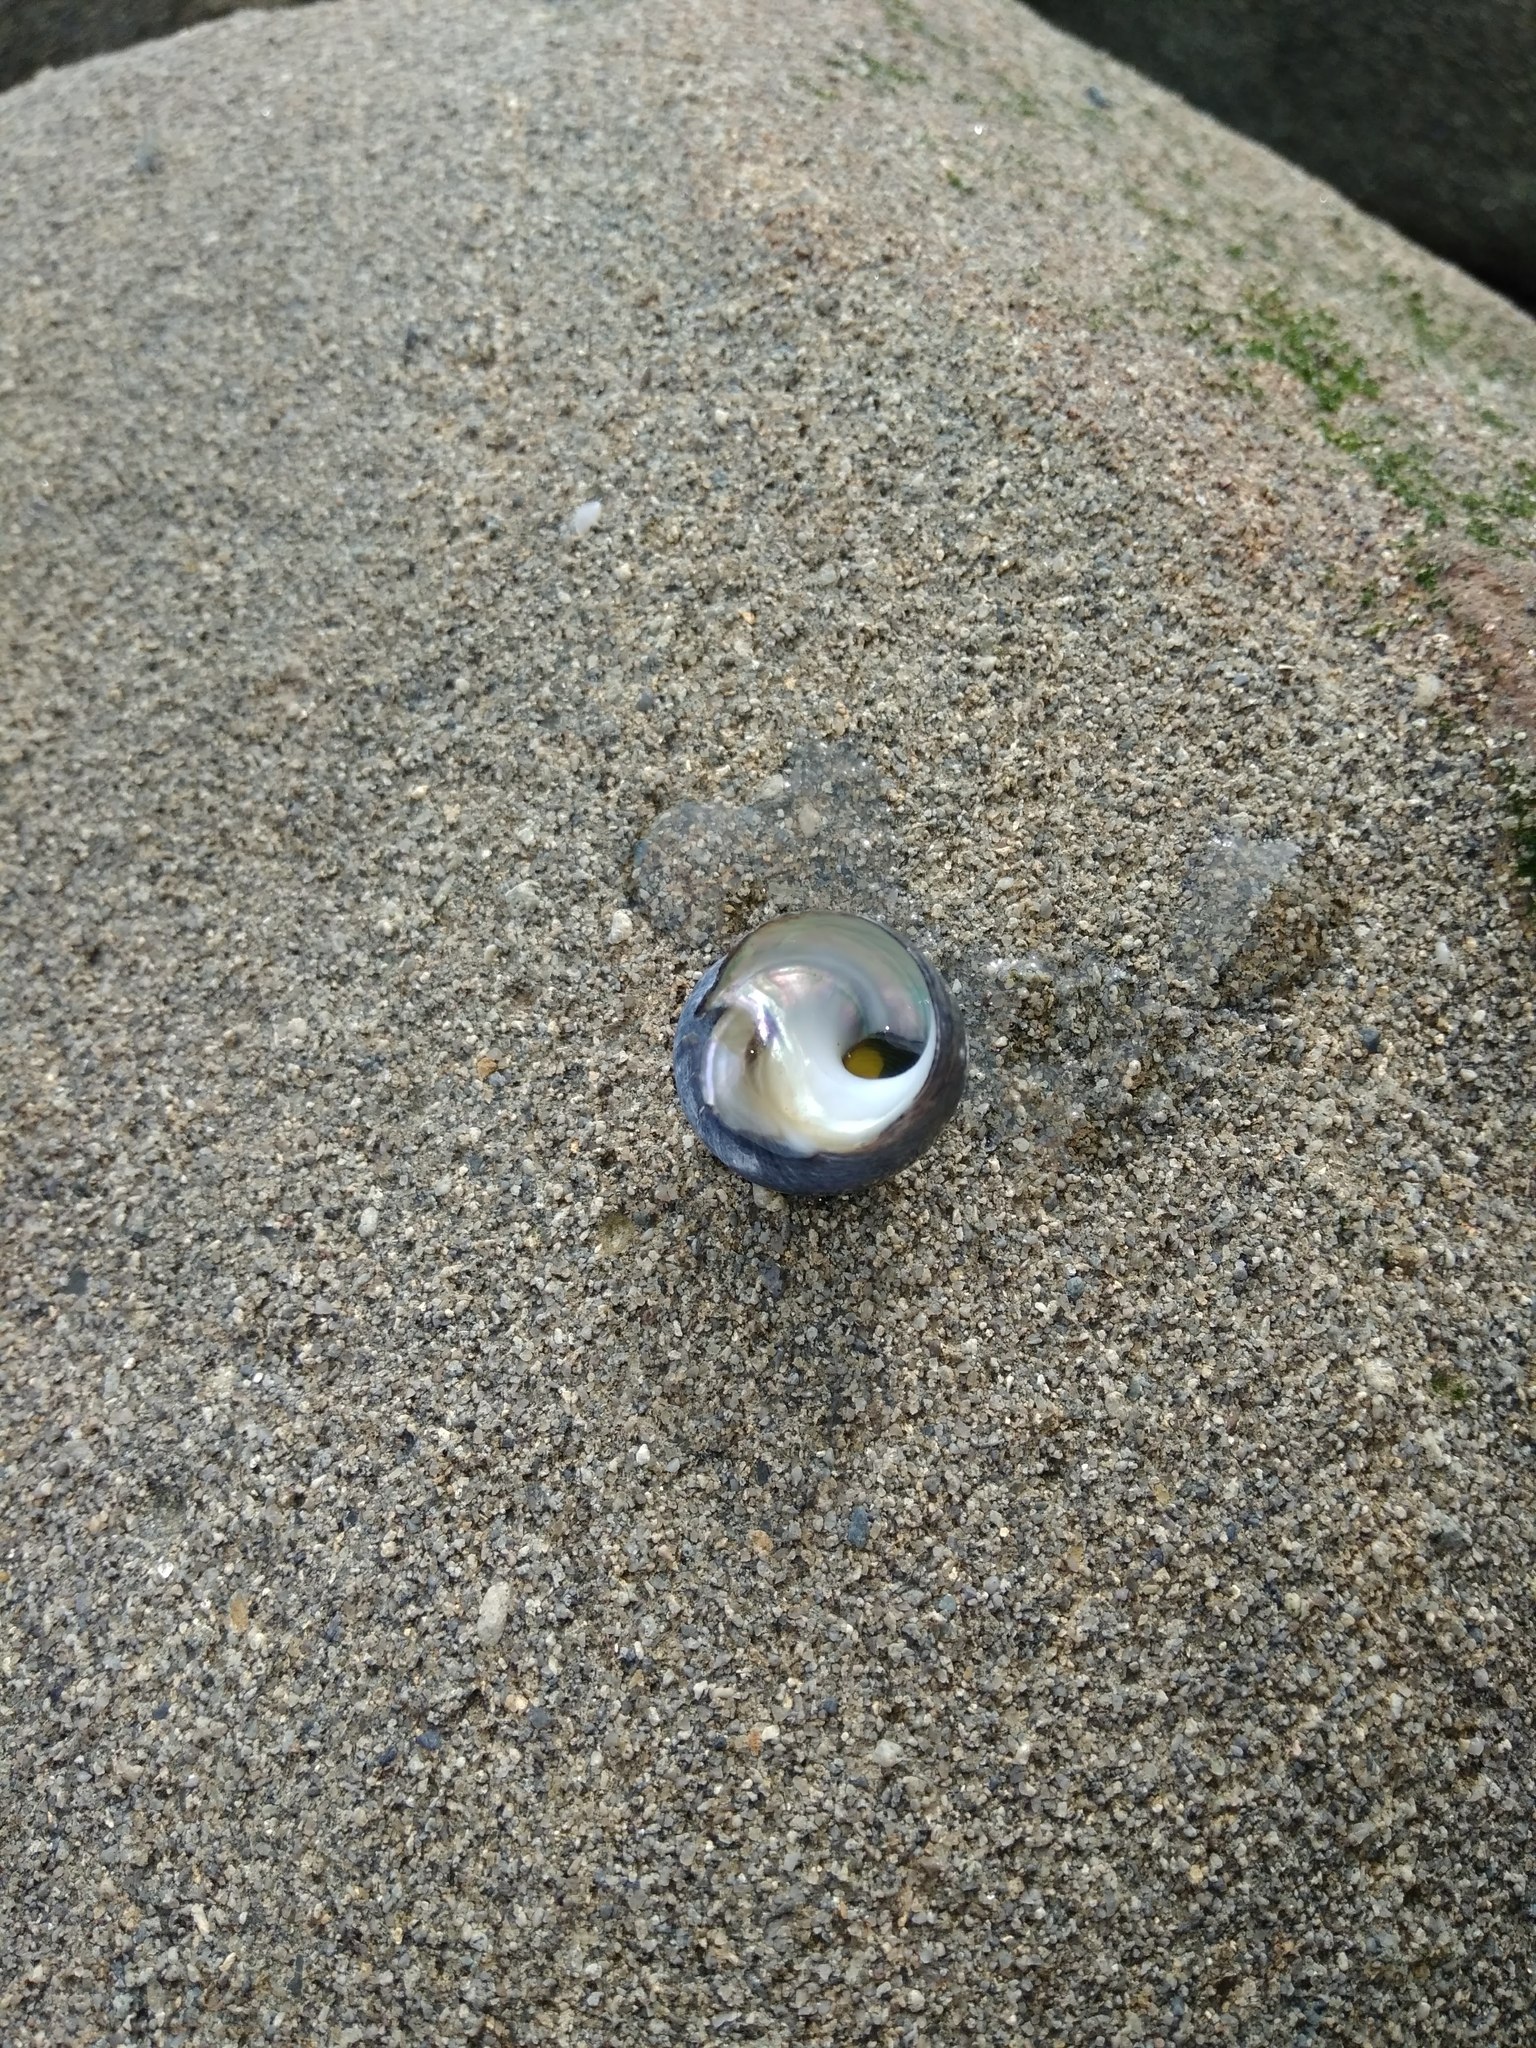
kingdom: Animalia
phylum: Mollusca
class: Gastropoda
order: Trochida
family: Tegulidae
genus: Tegula
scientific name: Tegula atra
